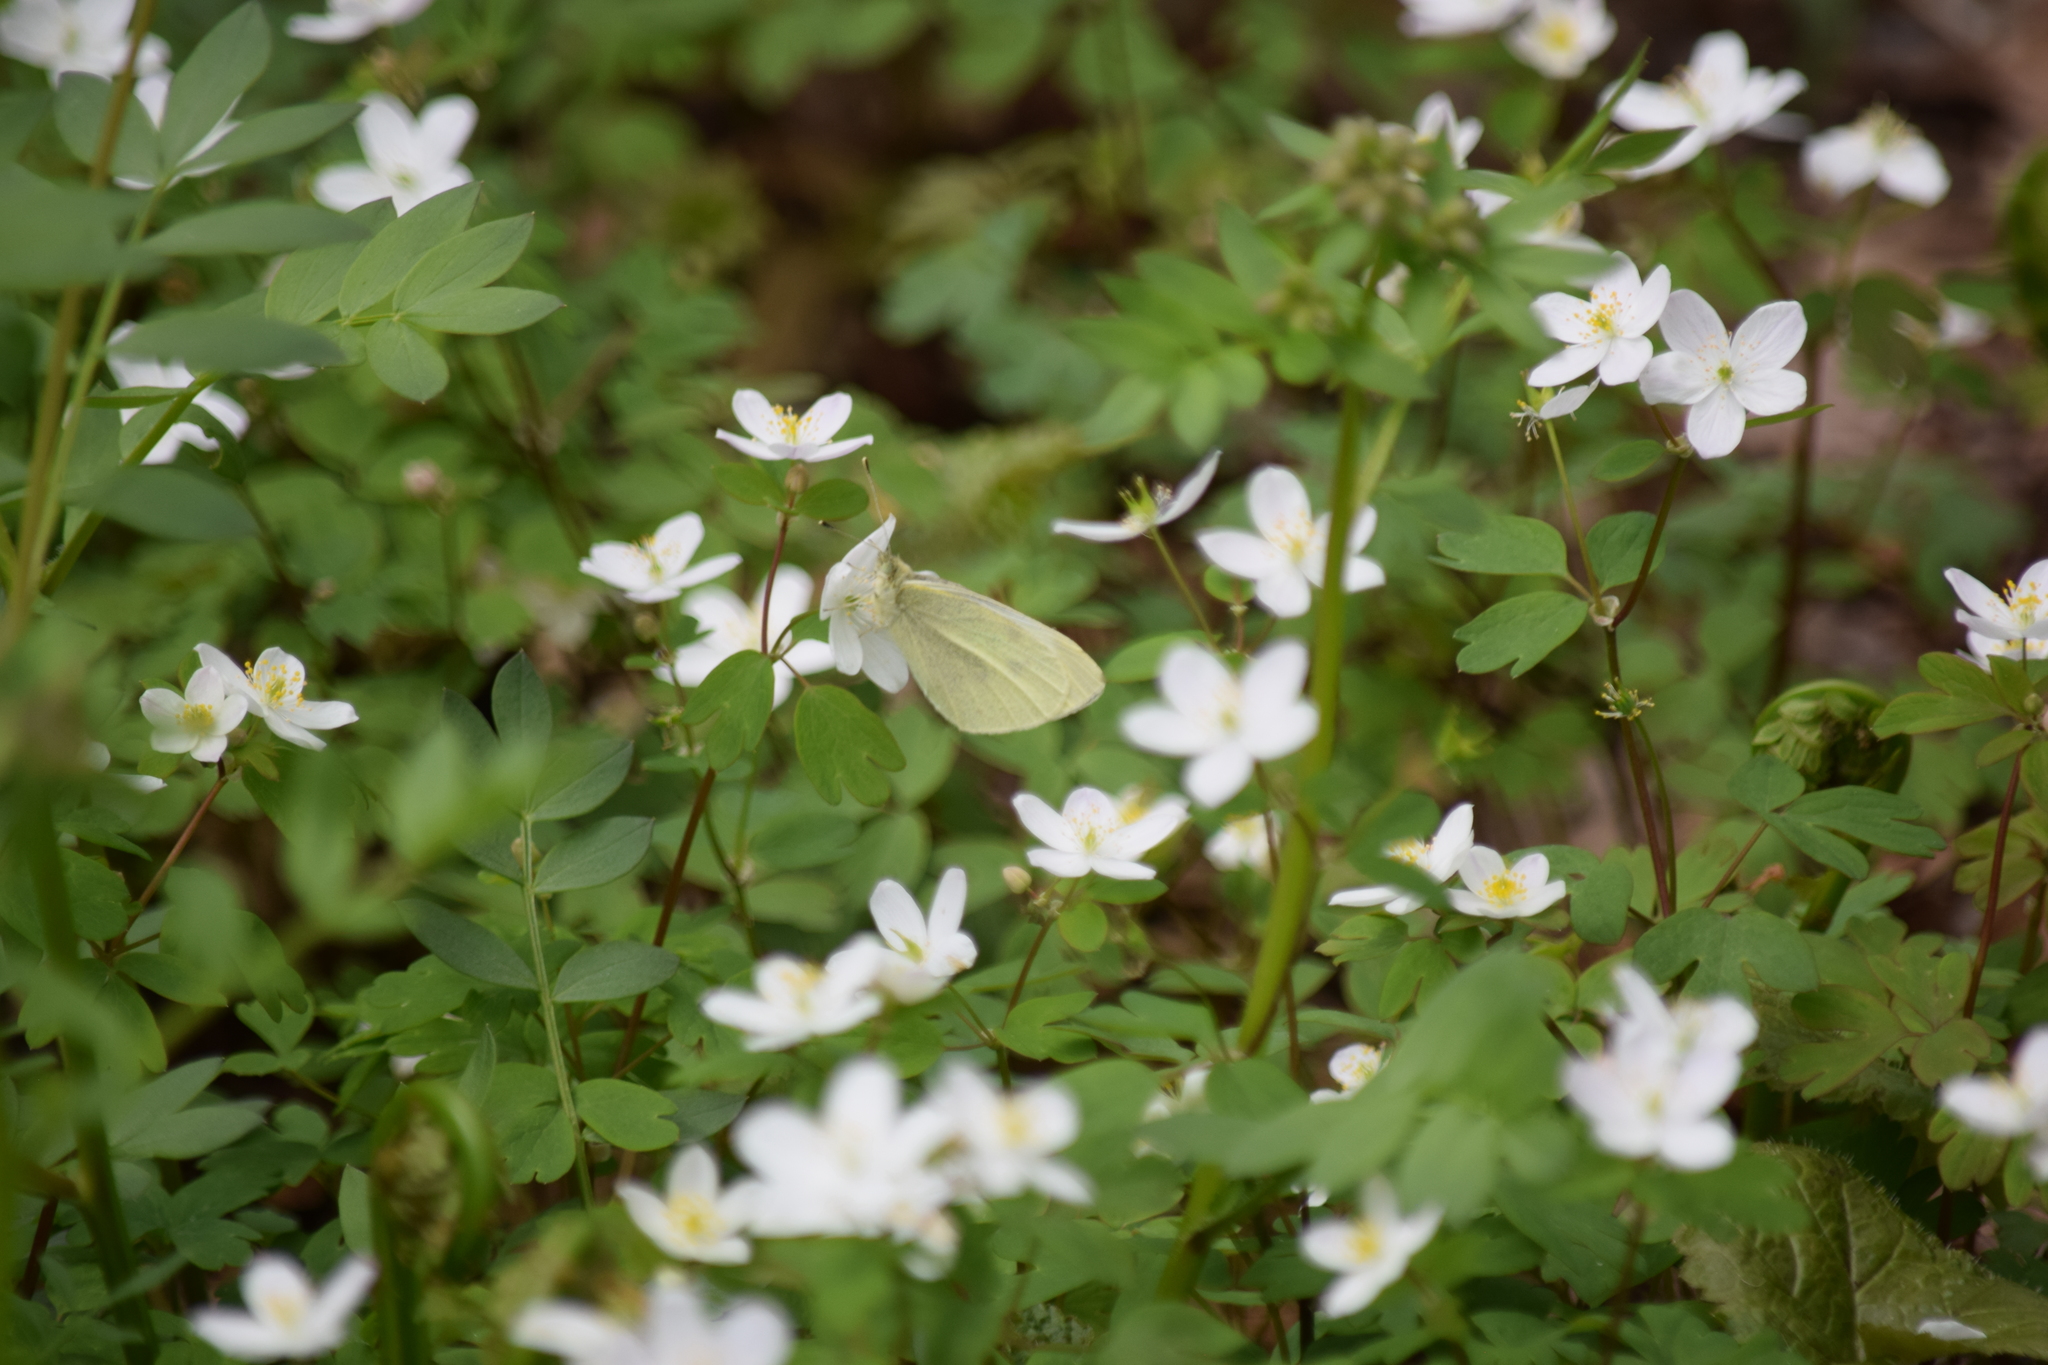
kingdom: Animalia
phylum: Arthropoda
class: Insecta
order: Lepidoptera
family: Pieridae
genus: Pieris
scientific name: Pieris rapae
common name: Small white
